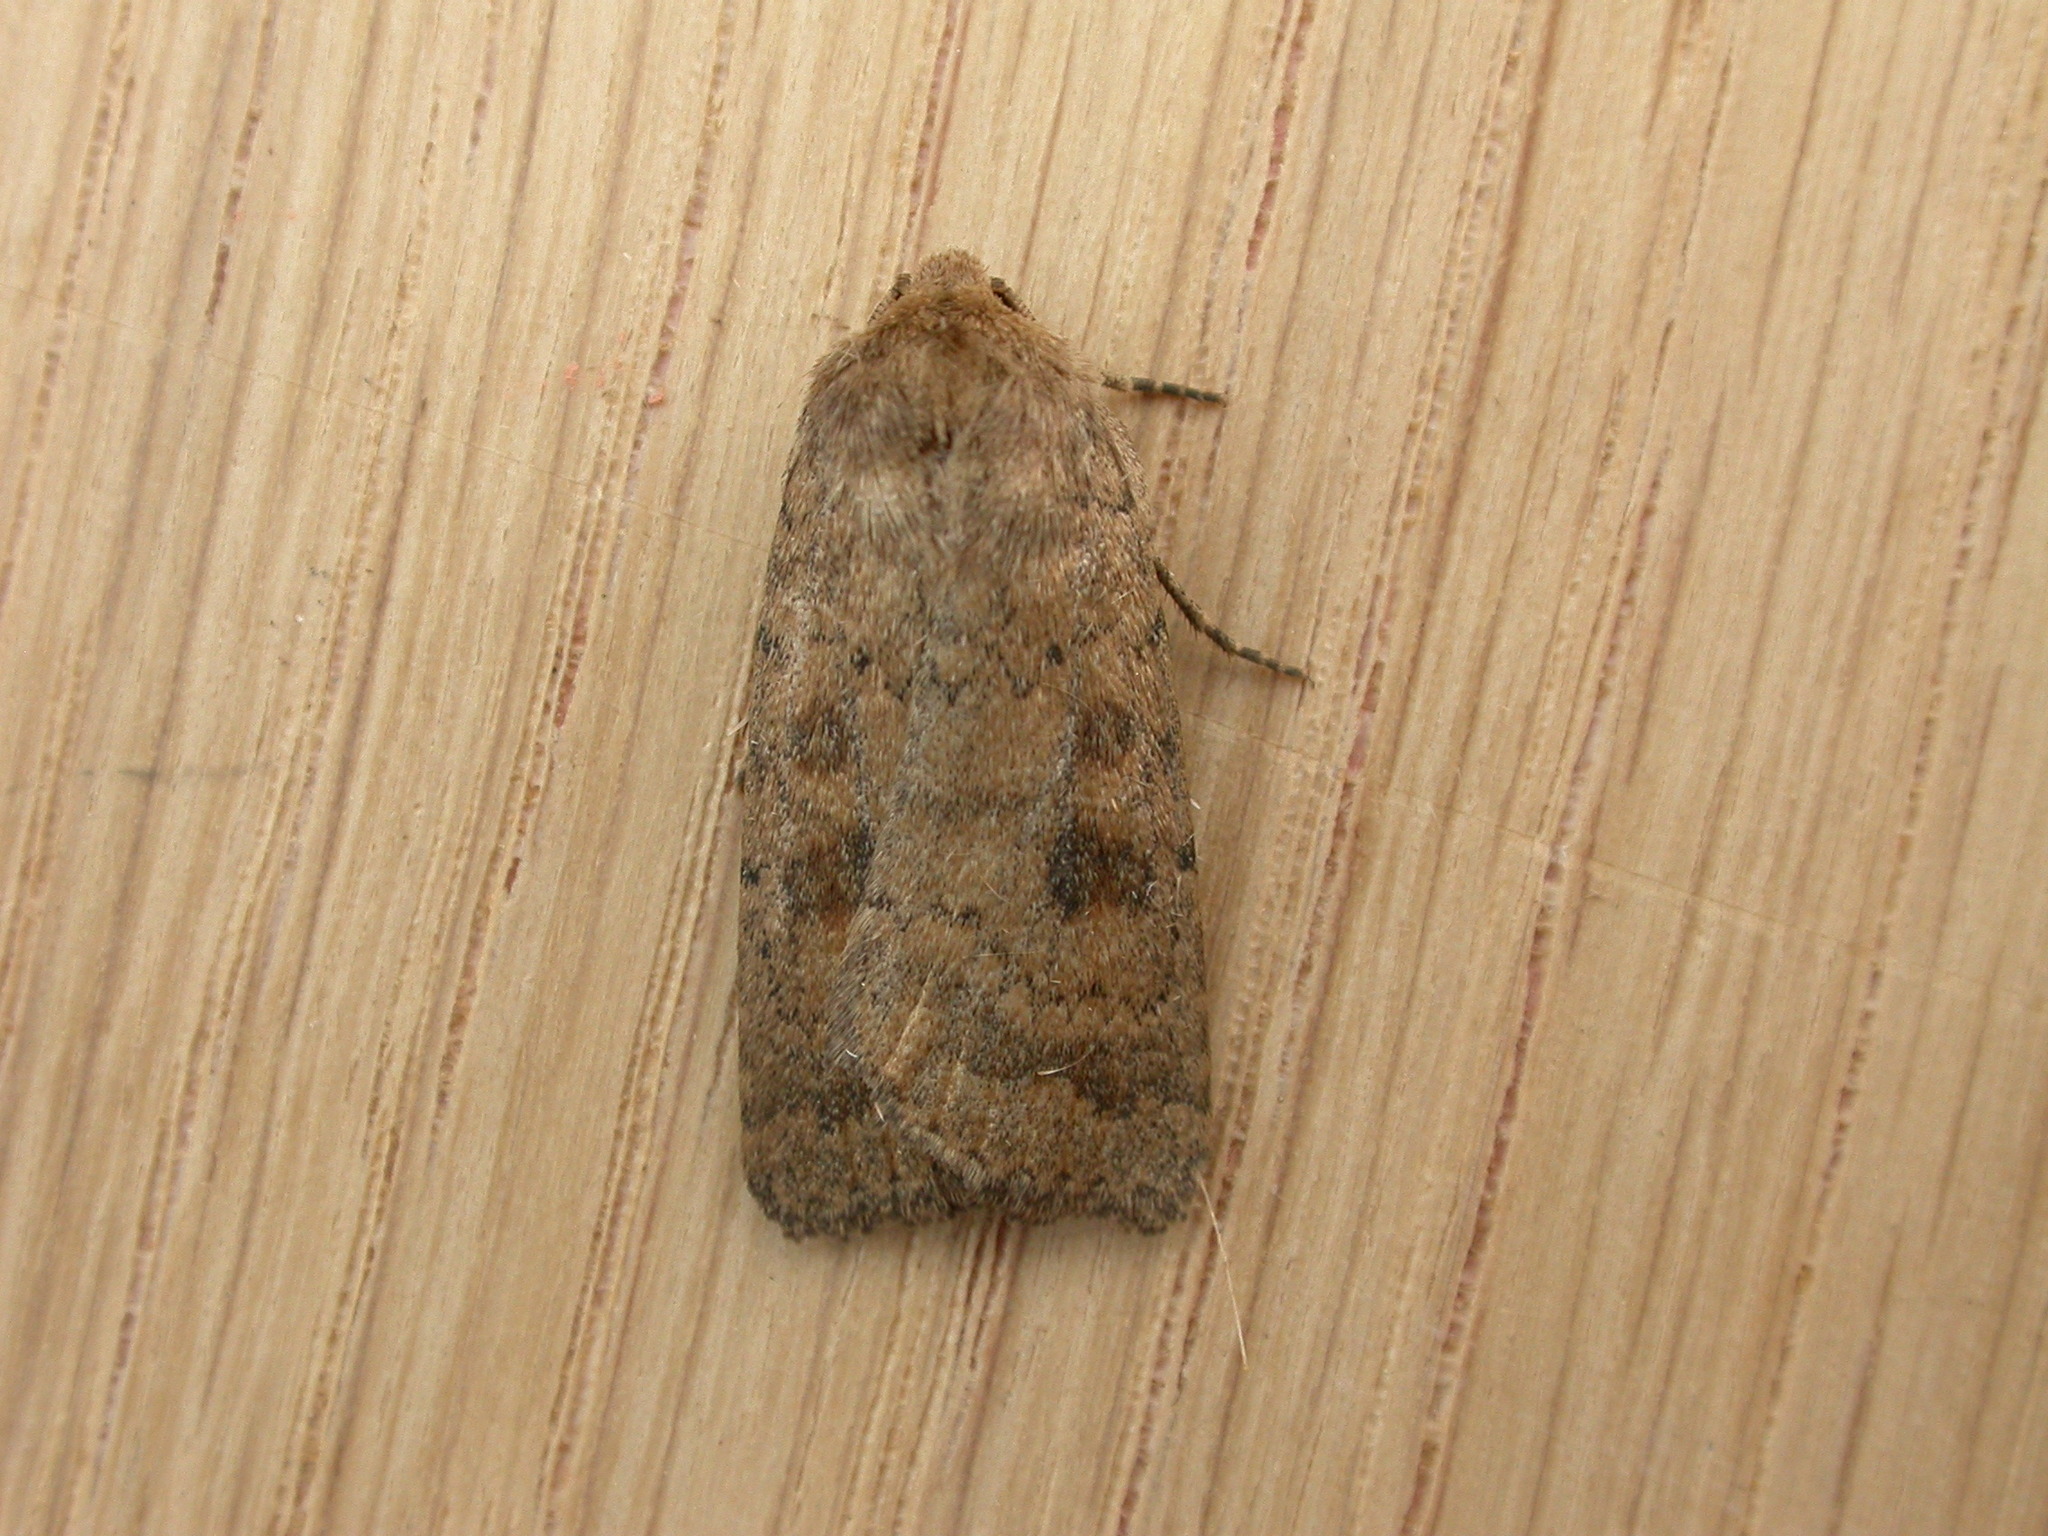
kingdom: Animalia
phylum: Arthropoda
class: Insecta
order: Lepidoptera
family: Noctuidae
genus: Caradrina
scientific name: Caradrina morpheus
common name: Mottled rustic
